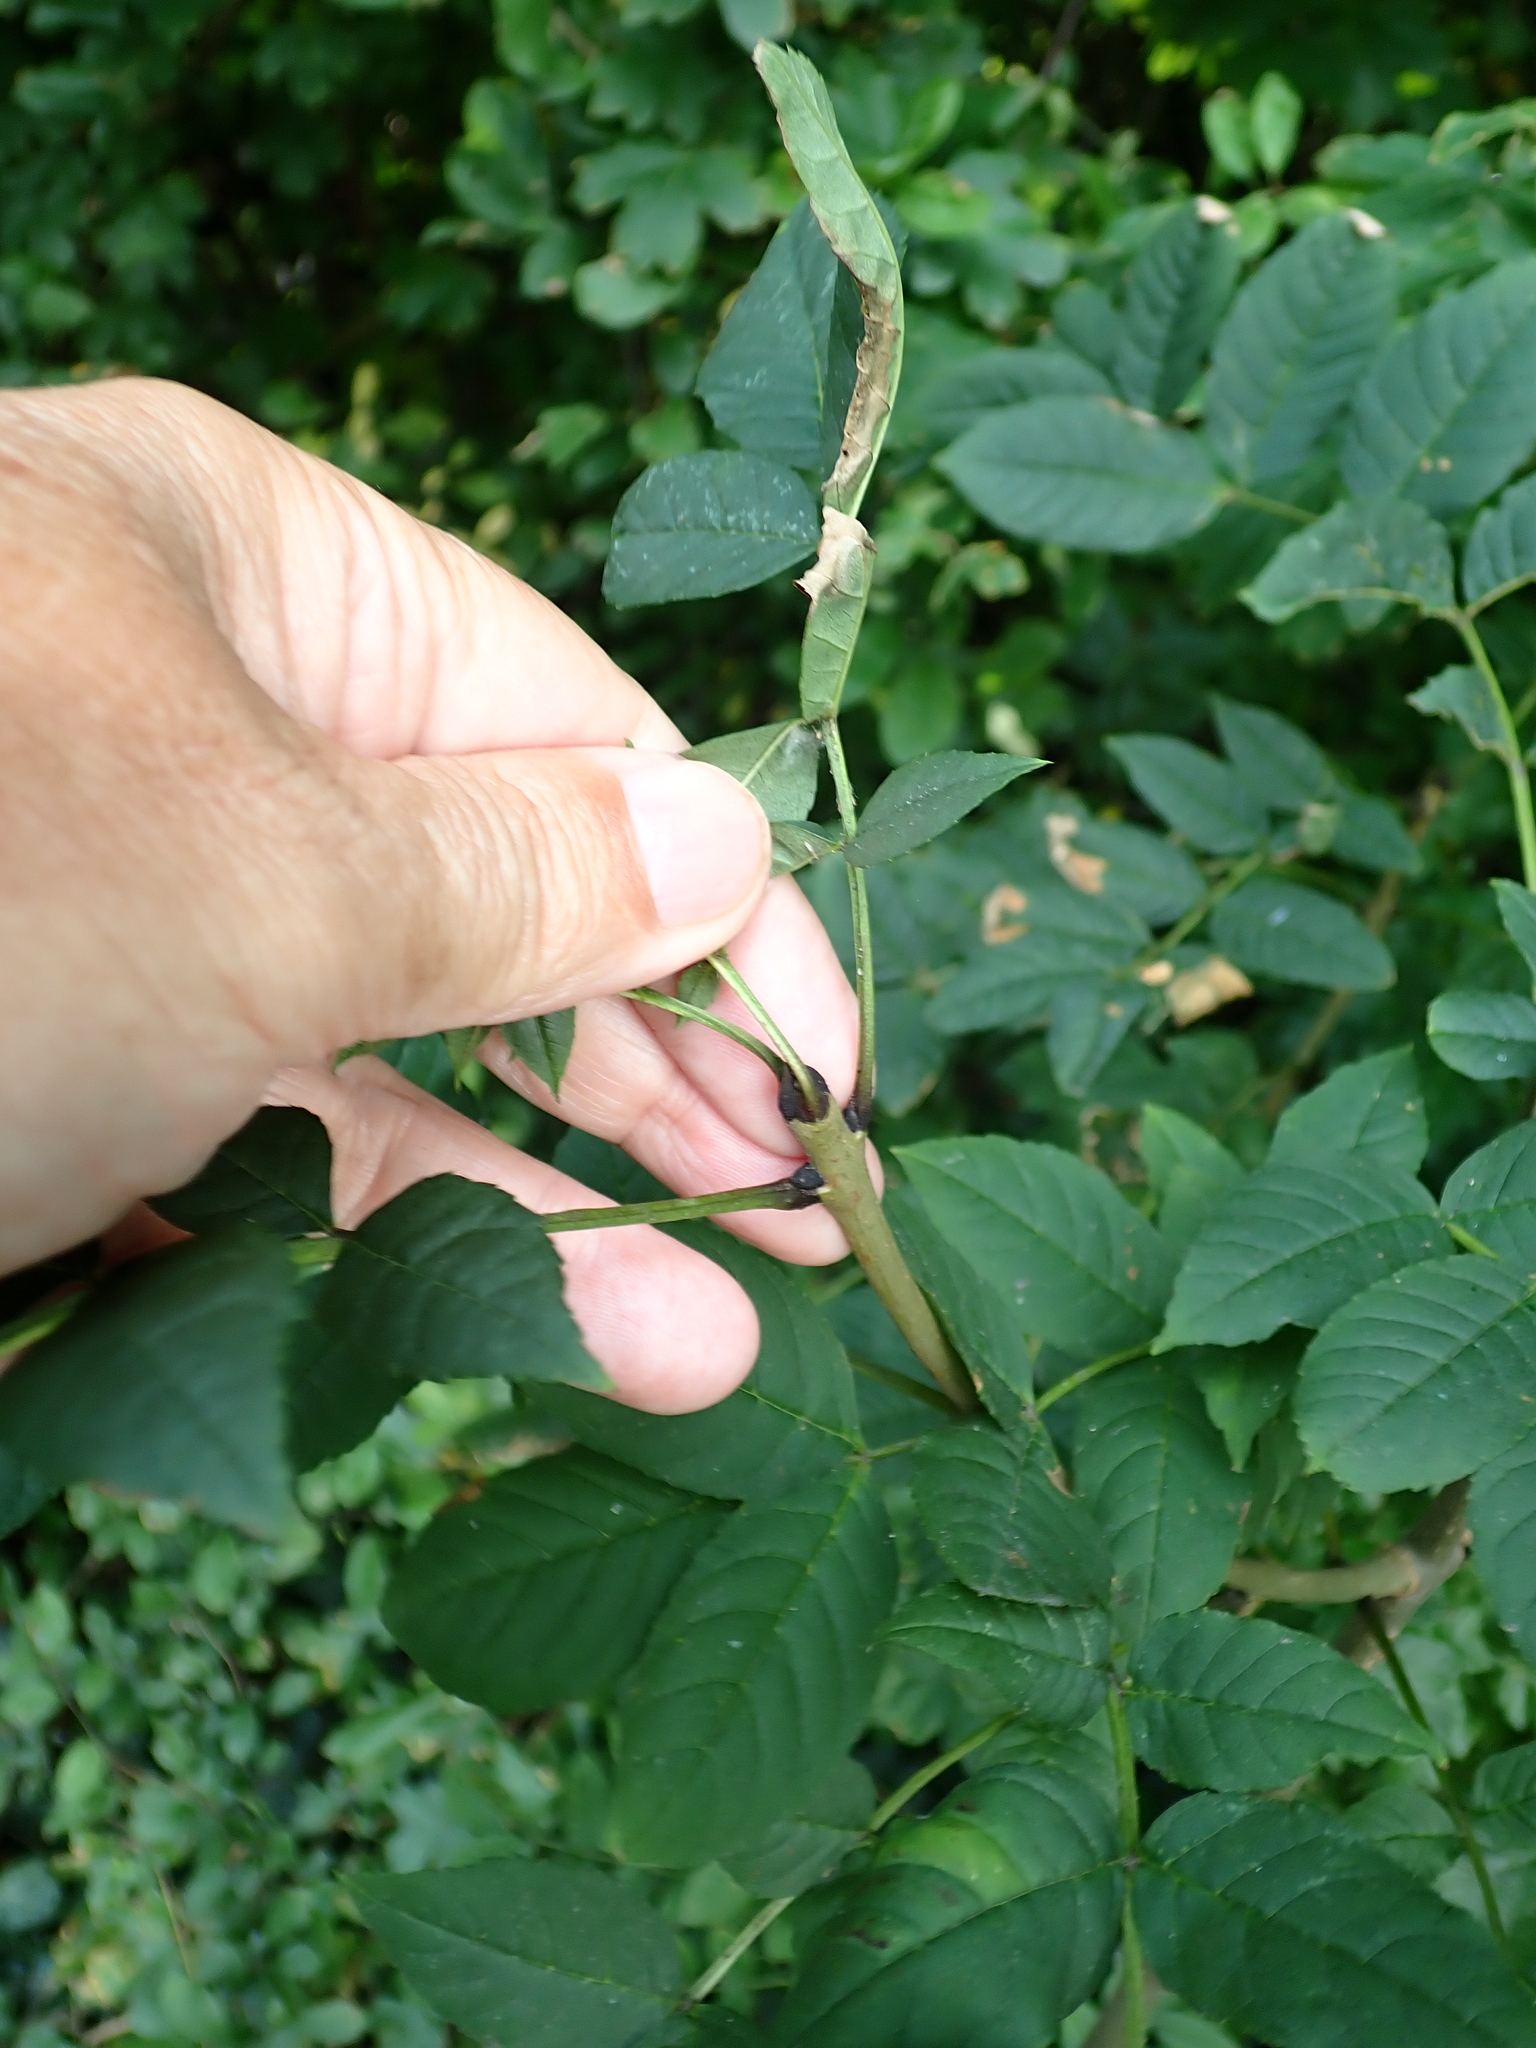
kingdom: Plantae
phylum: Tracheophyta
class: Magnoliopsida
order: Lamiales
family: Oleaceae
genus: Fraxinus
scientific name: Fraxinus excelsior
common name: European ash
